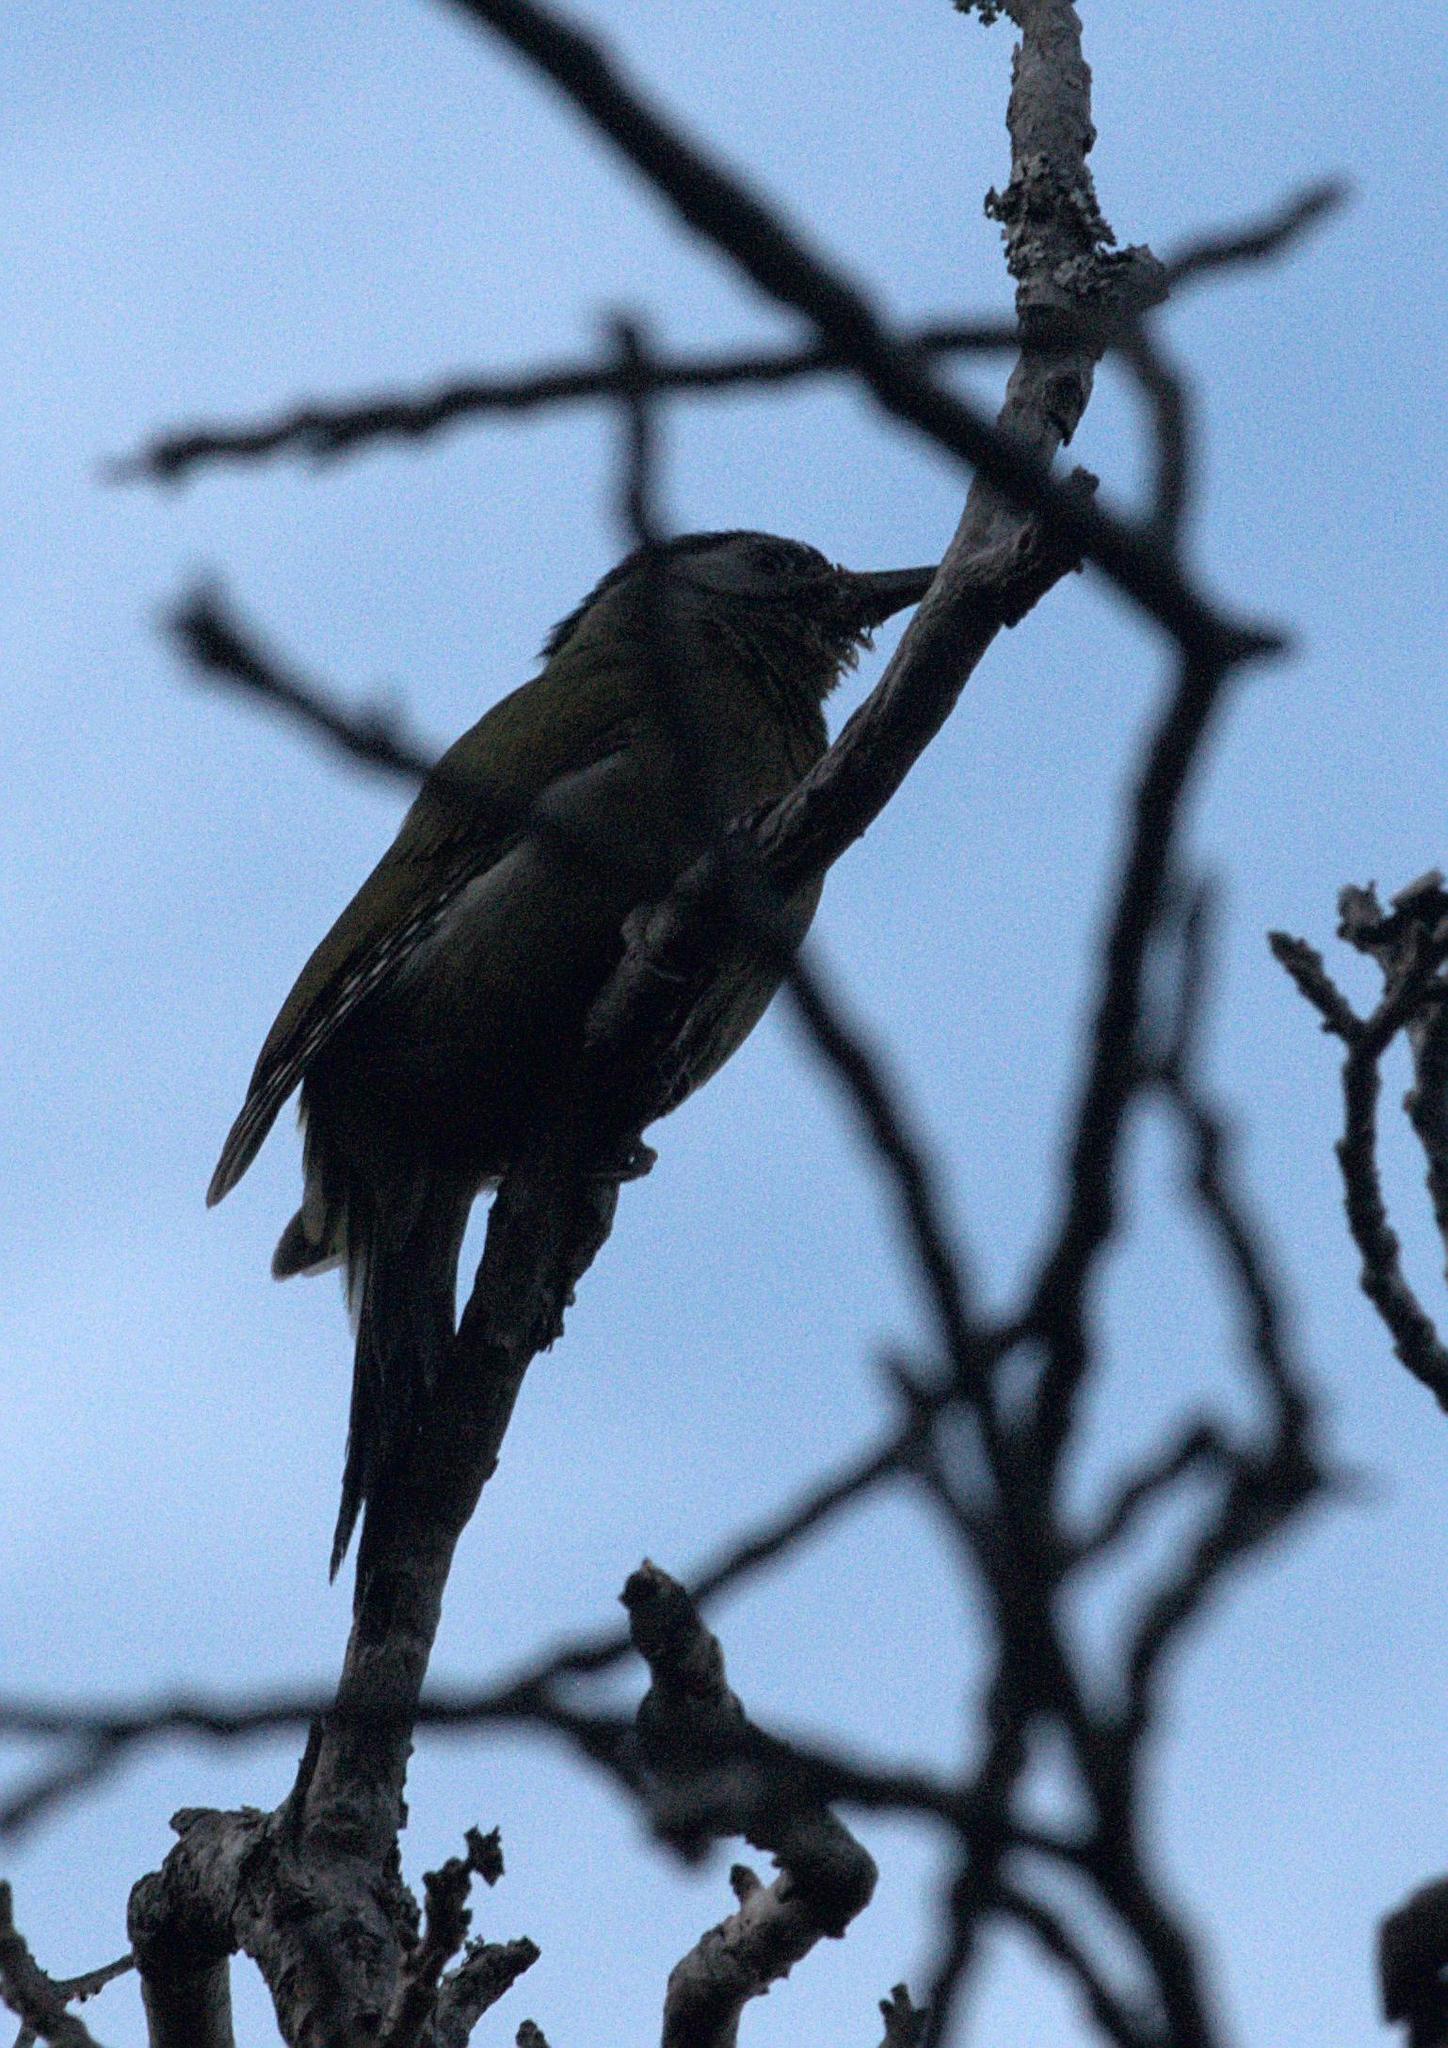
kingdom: Animalia
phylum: Chordata
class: Aves
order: Piciformes
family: Picidae
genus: Picus
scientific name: Picus canus
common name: Grey-headed woodpecker
